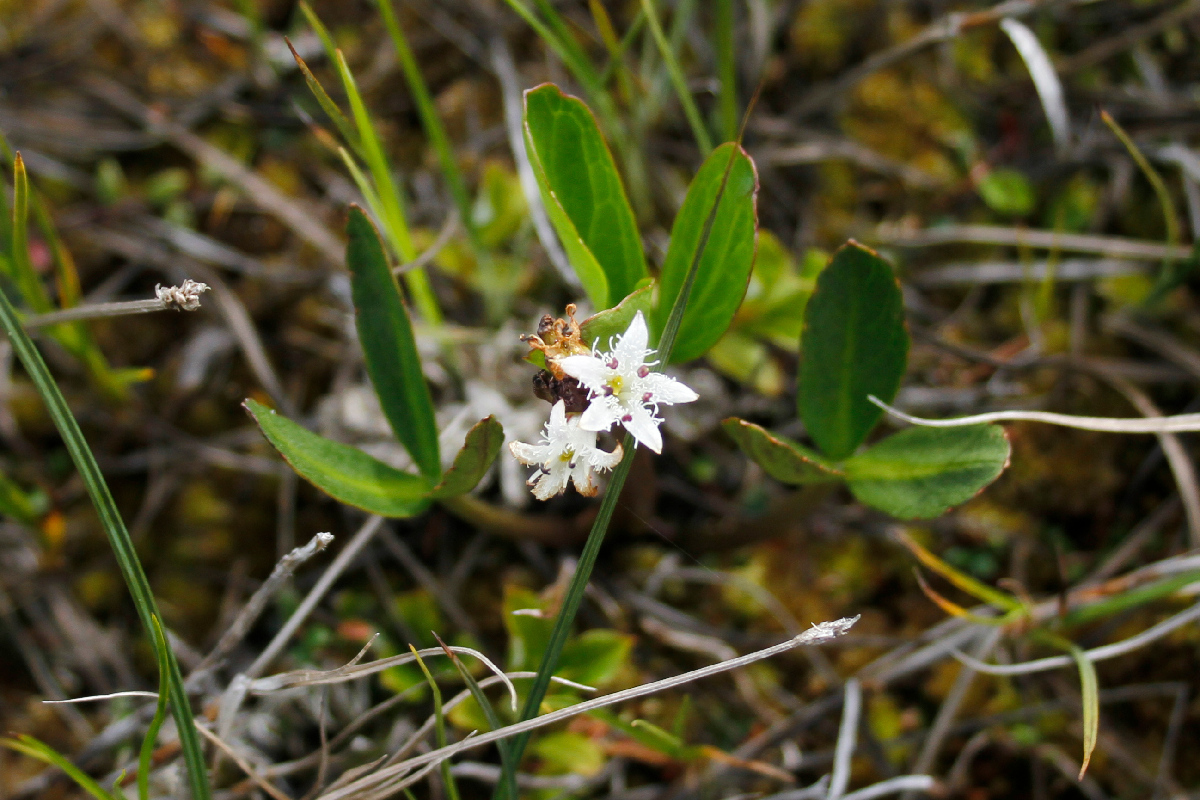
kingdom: Plantae
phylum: Tracheophyta
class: Magnoliopsida
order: Asterales
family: Menyanthaceae
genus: Menyanthes
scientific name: Menyanthes trifoliata
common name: Bogbean
